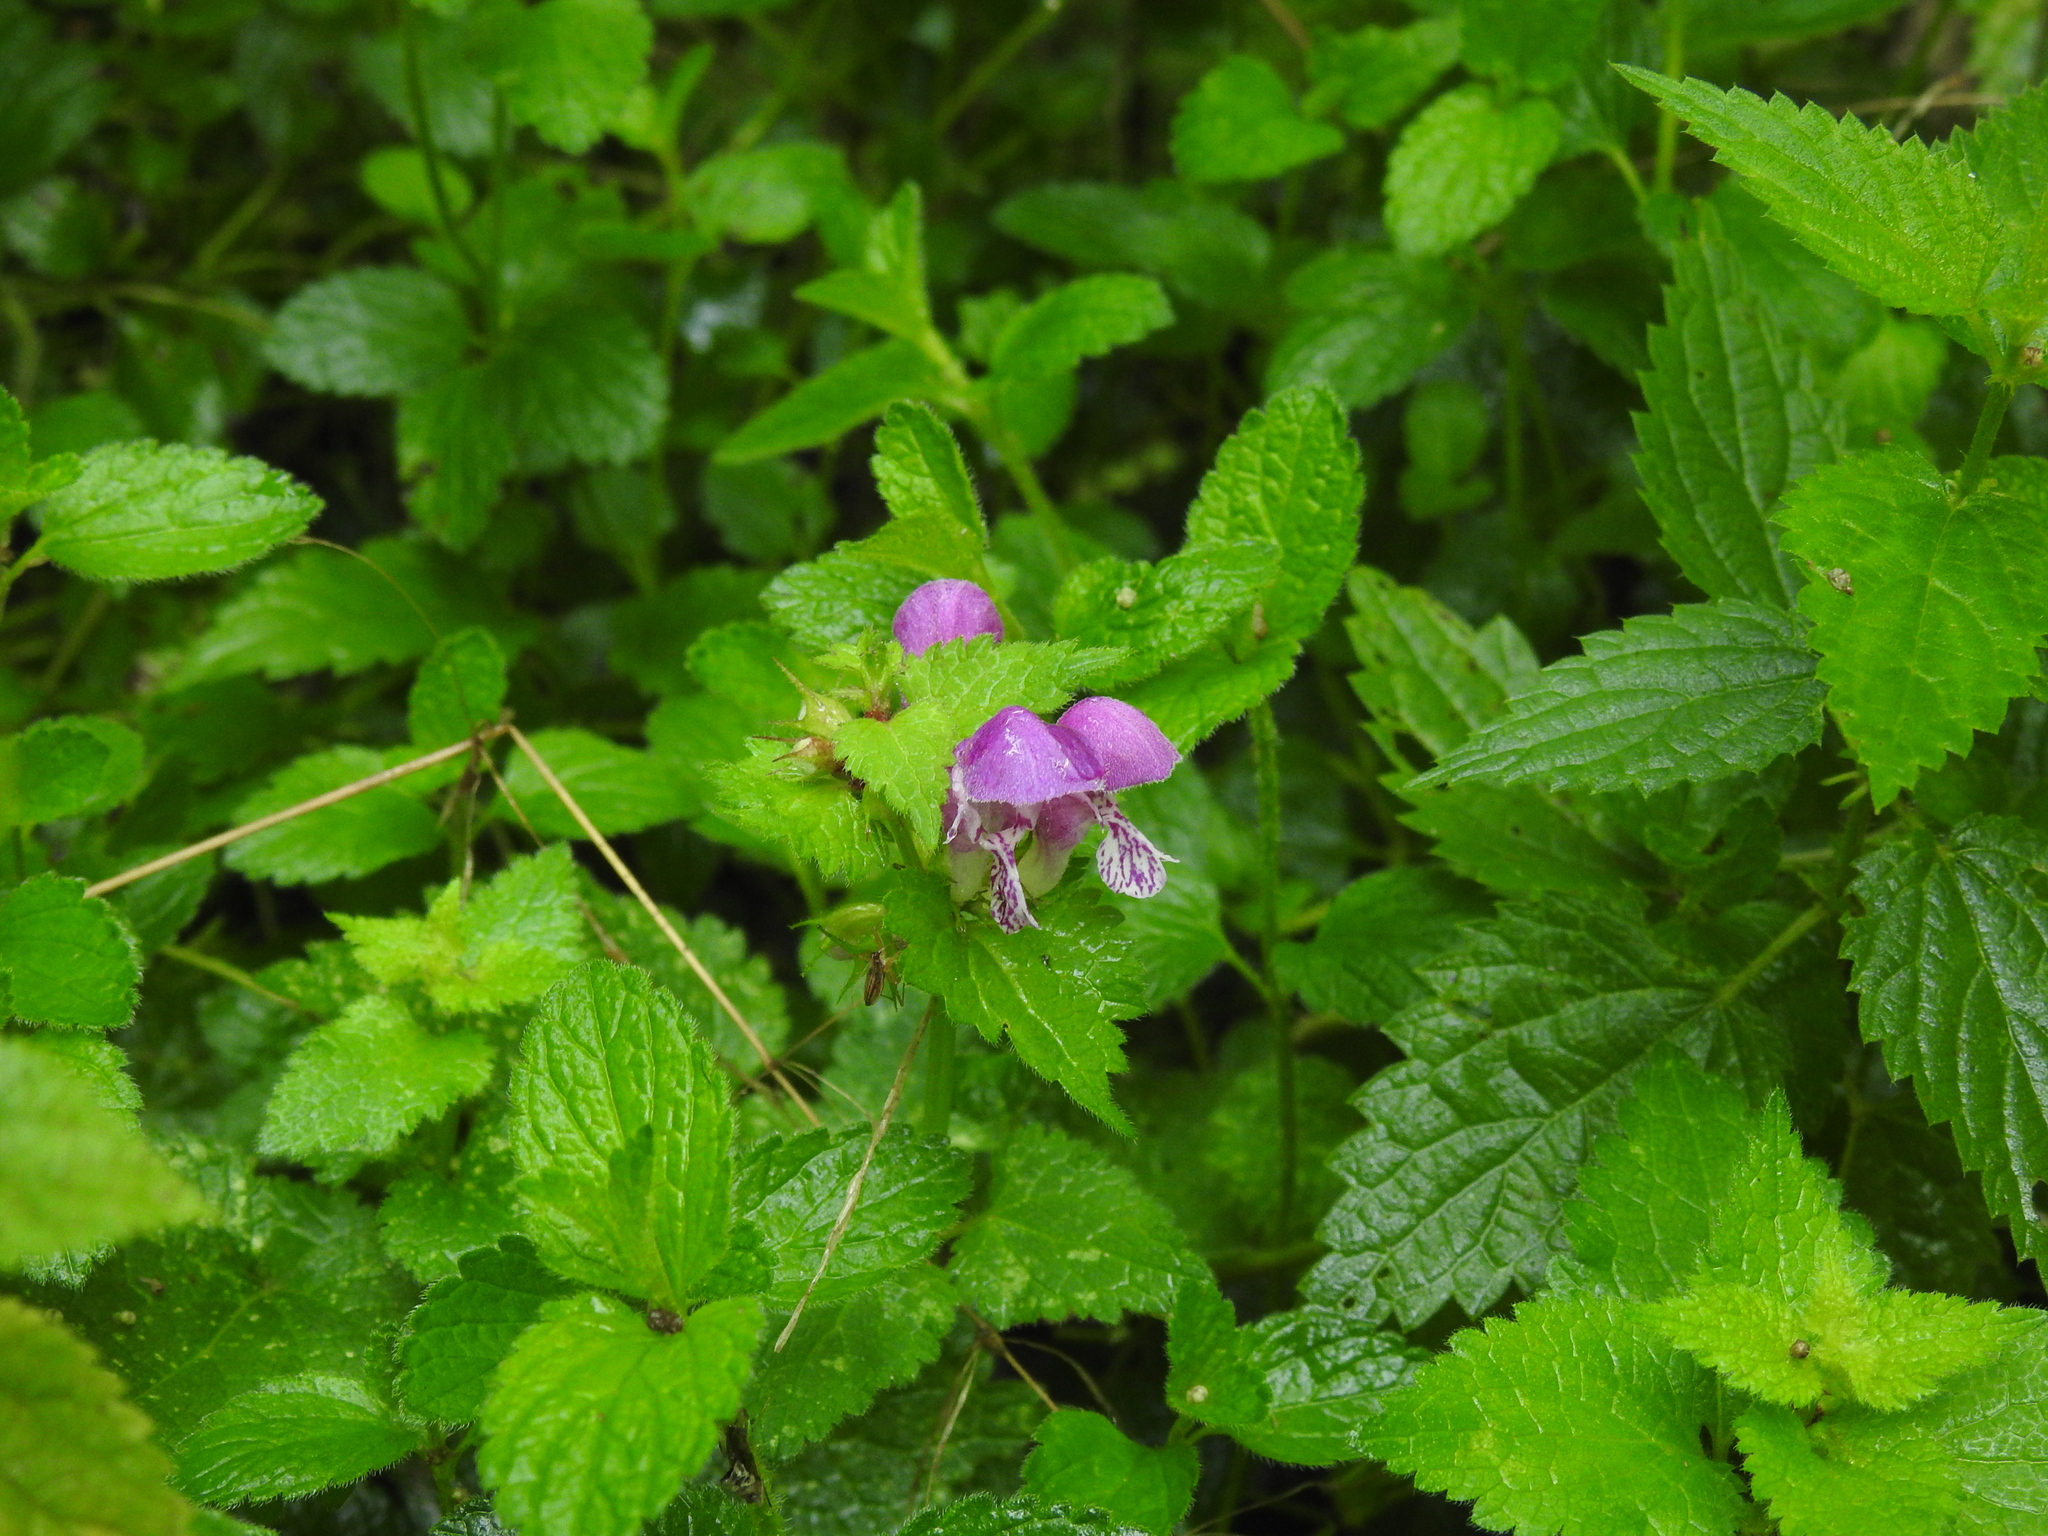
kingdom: Plantae
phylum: Tracheophyta
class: Magnoliopsida
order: Lamiales
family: Lamiaceae
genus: Lamium
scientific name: Lamium maculatum
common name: Spotted dead-nettle
